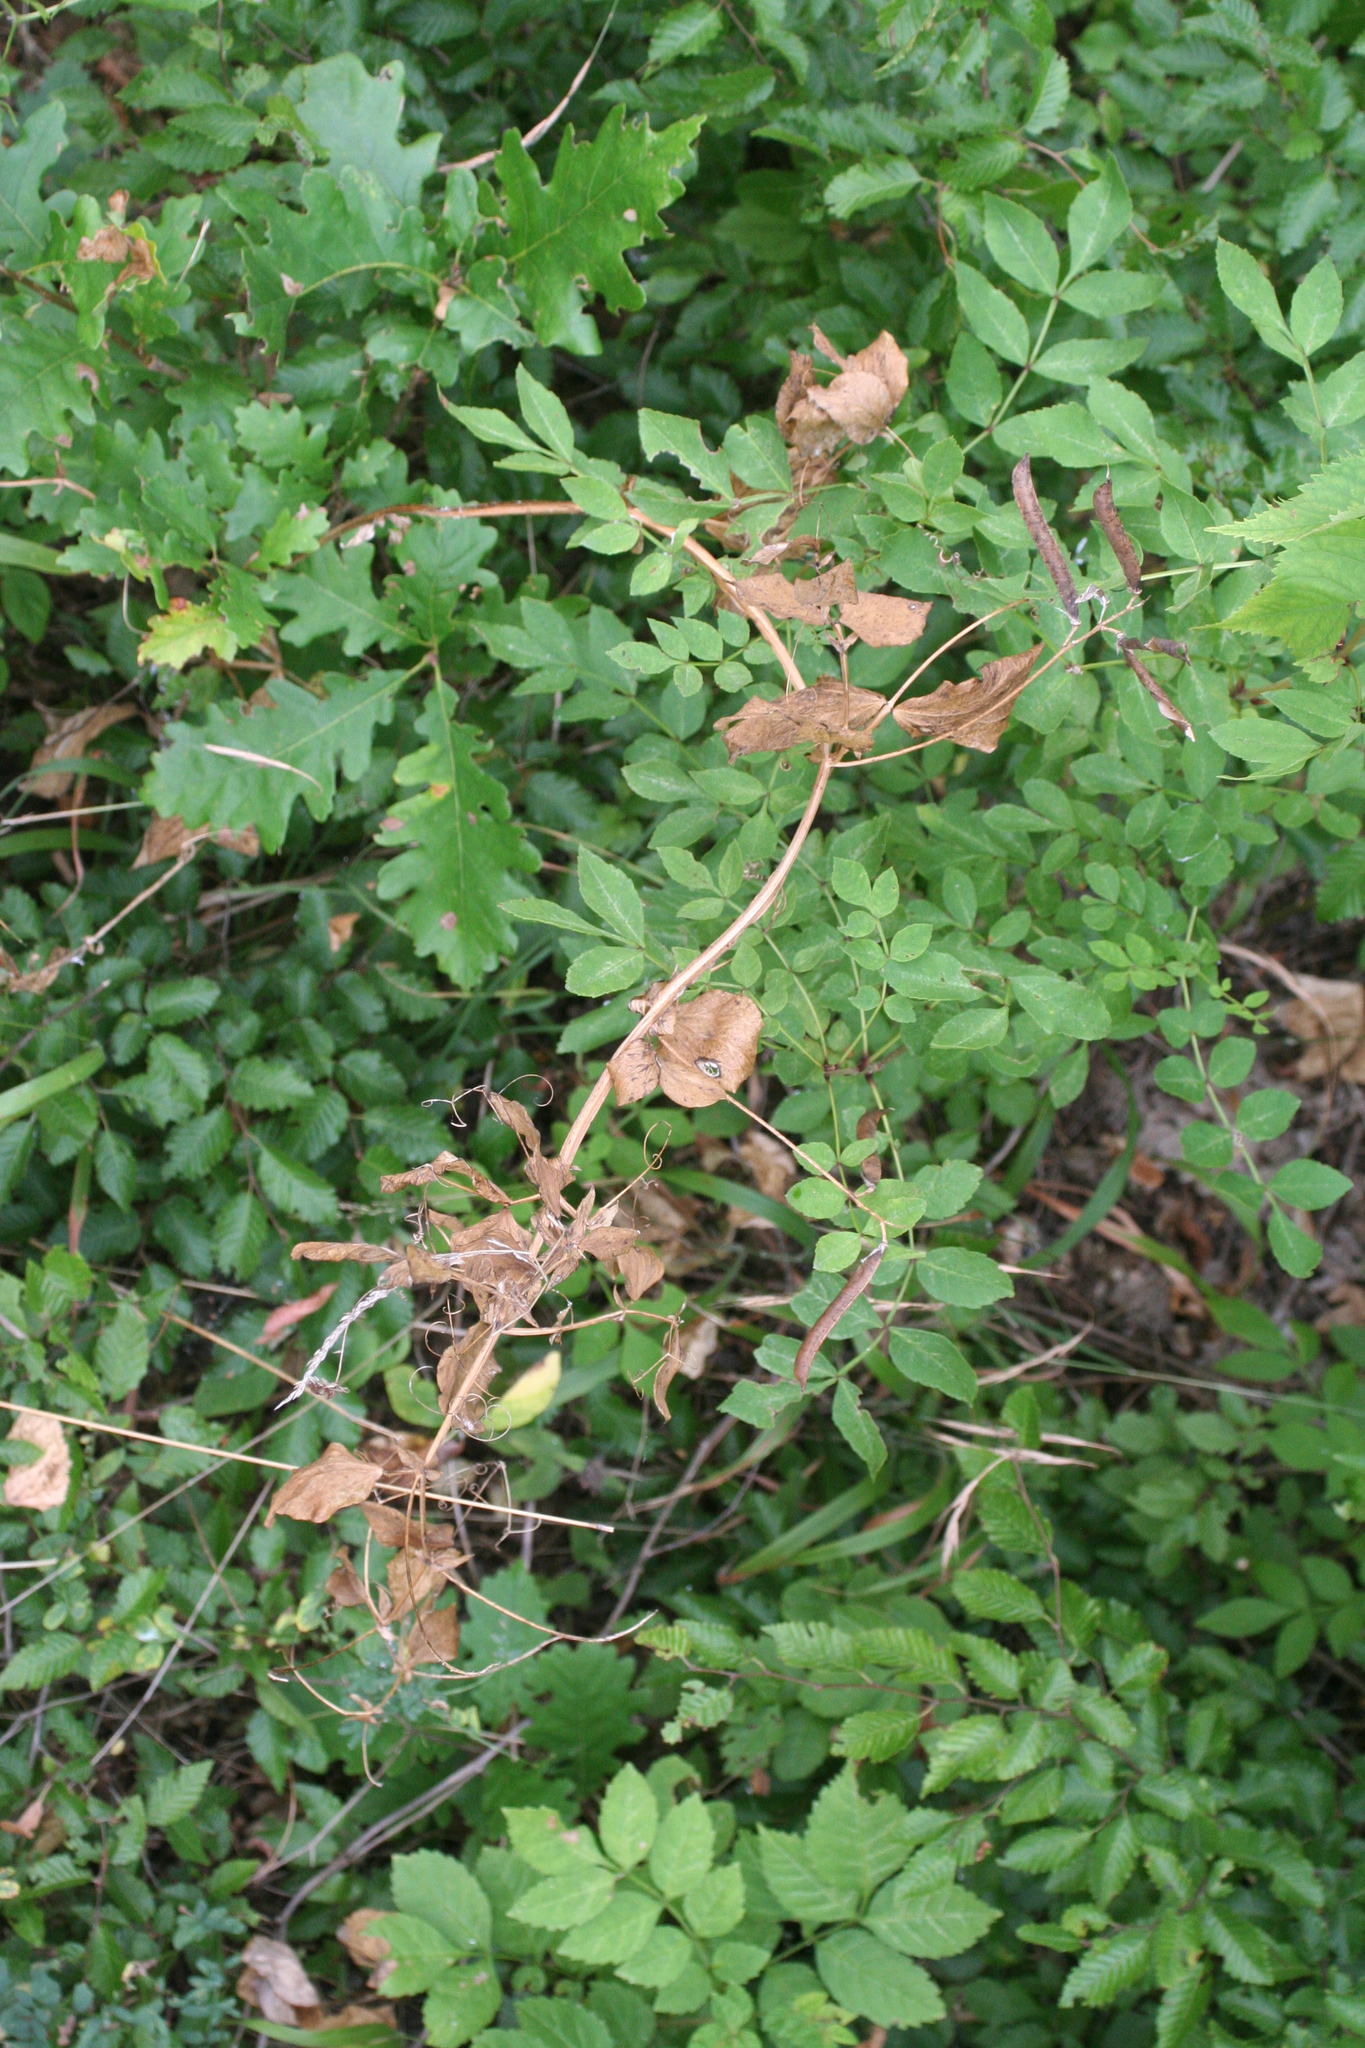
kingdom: Plantae
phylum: Tracheophyta
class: Magnoliopsida
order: Fagales
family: Fagaceae
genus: Quercus
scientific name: Quercus pubescens
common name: Downy oak
